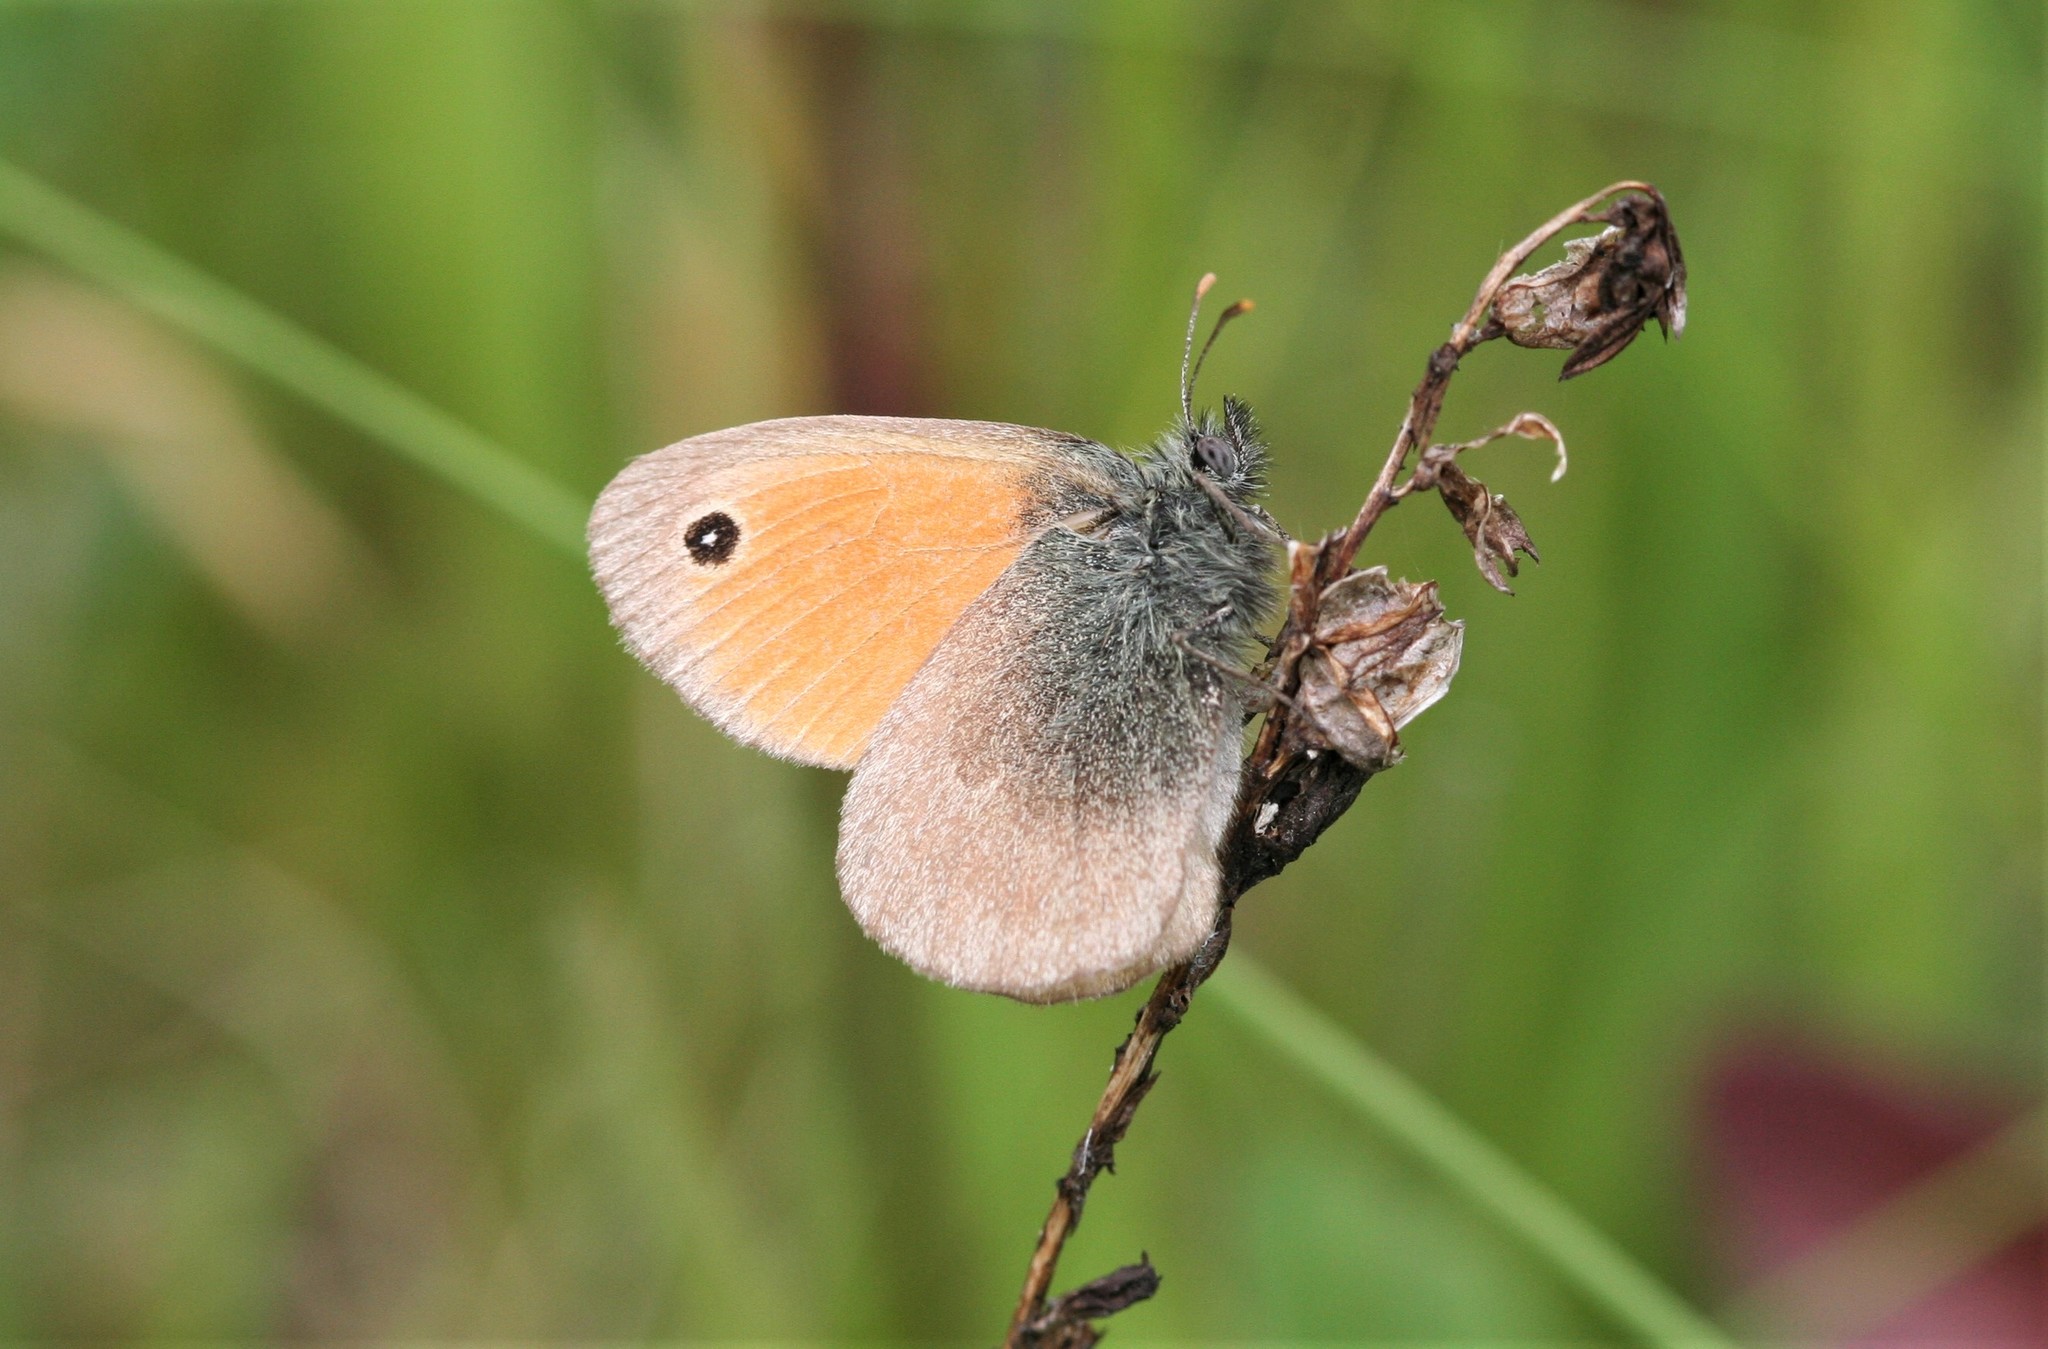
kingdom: Animalia
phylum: Arthropoda
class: Insecta
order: Lepidoptera
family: Nymphalidae
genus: Coenonympha
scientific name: Coenonympha pamphilus
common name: Small heath
